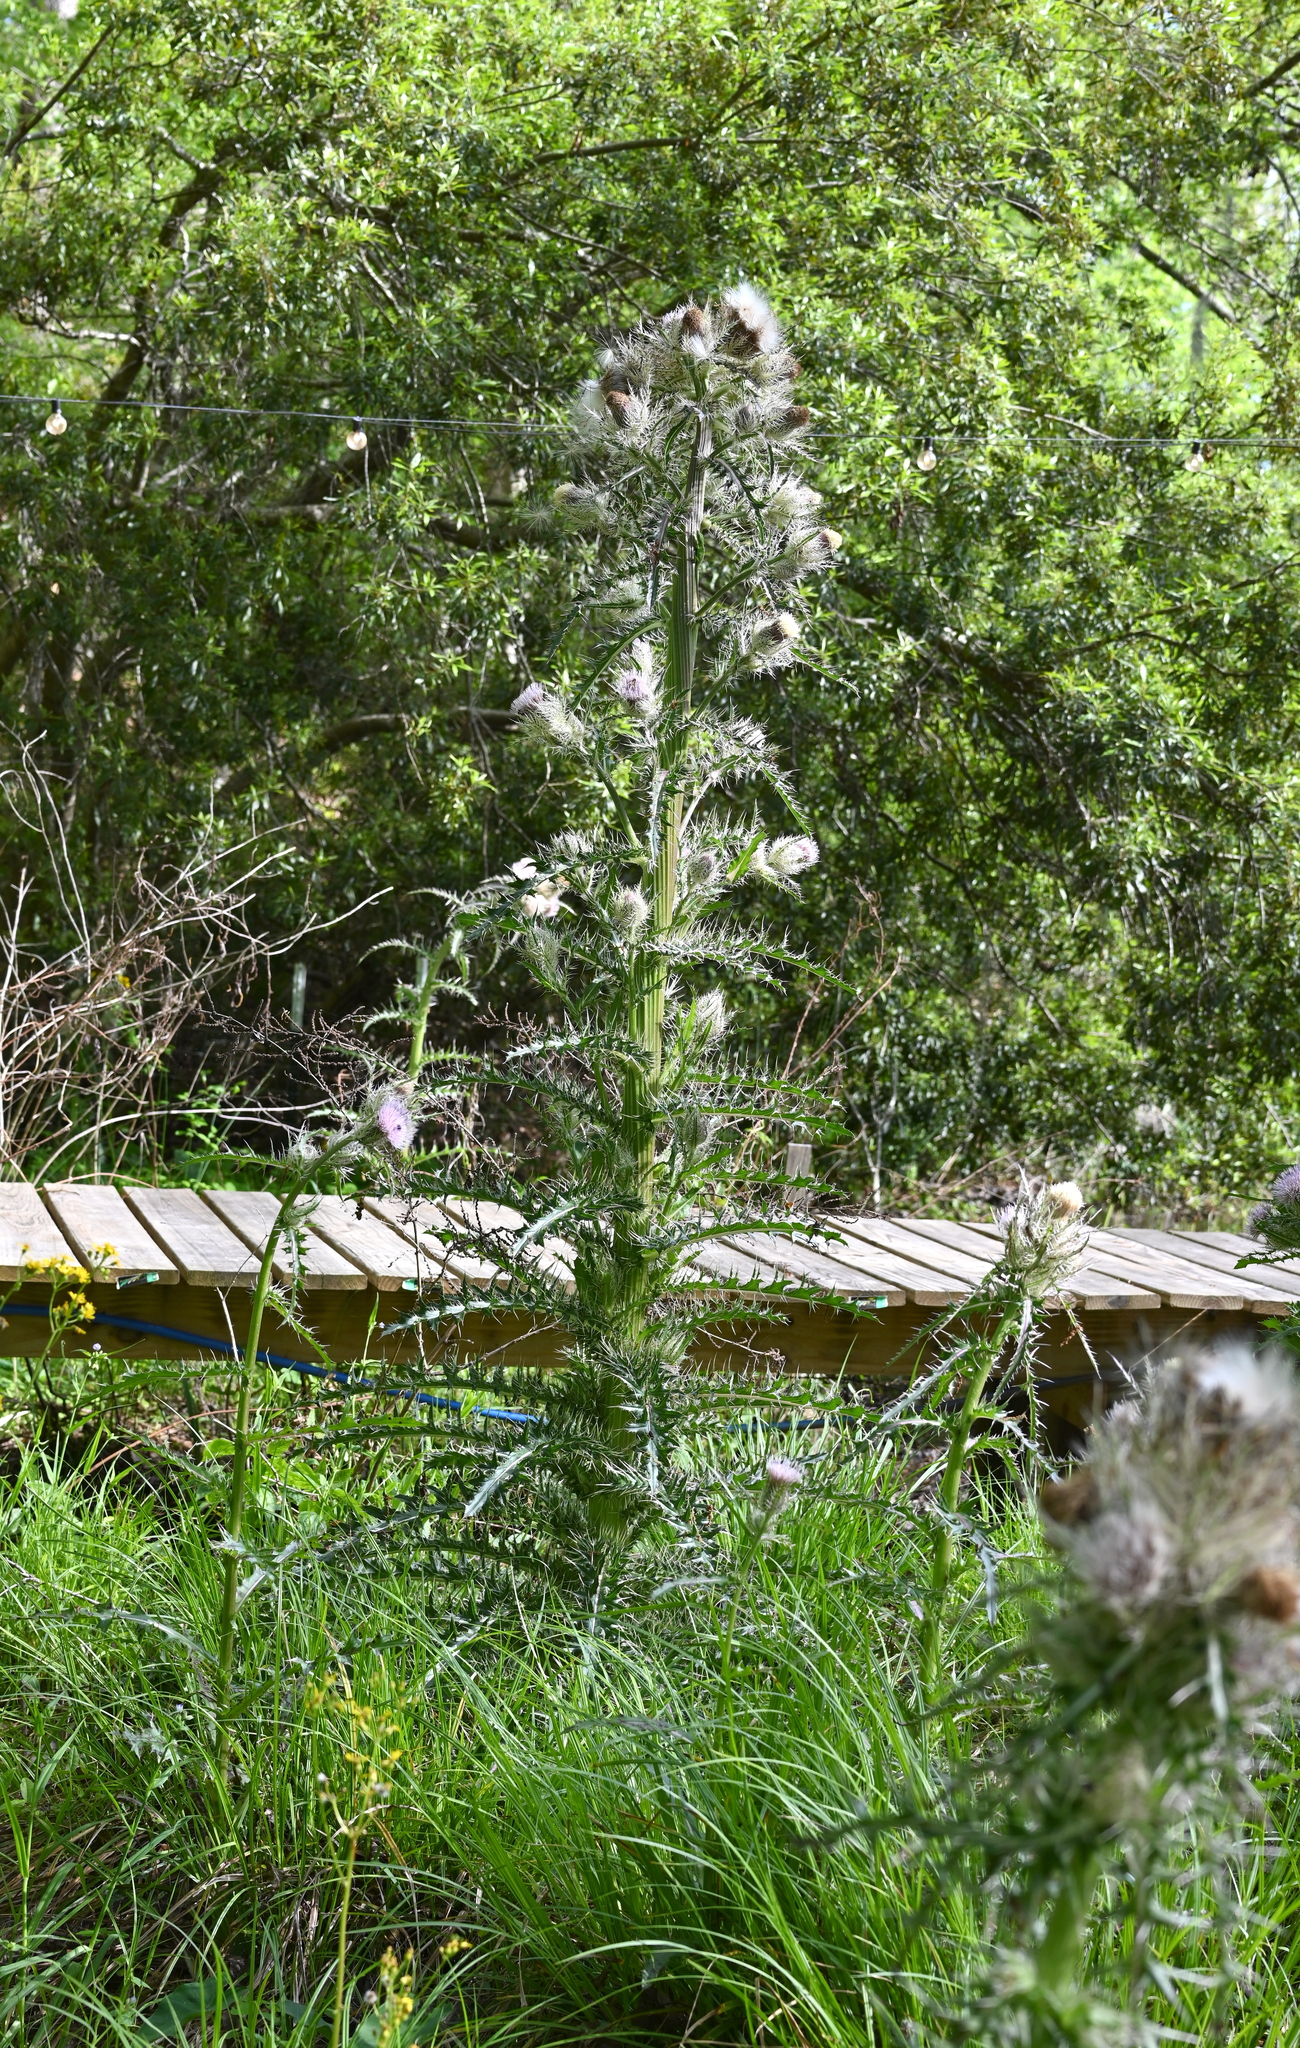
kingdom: Plantae
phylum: Tracheophyta
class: Magnoliopsida
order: Asterales
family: Asteraceae
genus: Cirsium
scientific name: Cirsium horridulum
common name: Bristly thistle
